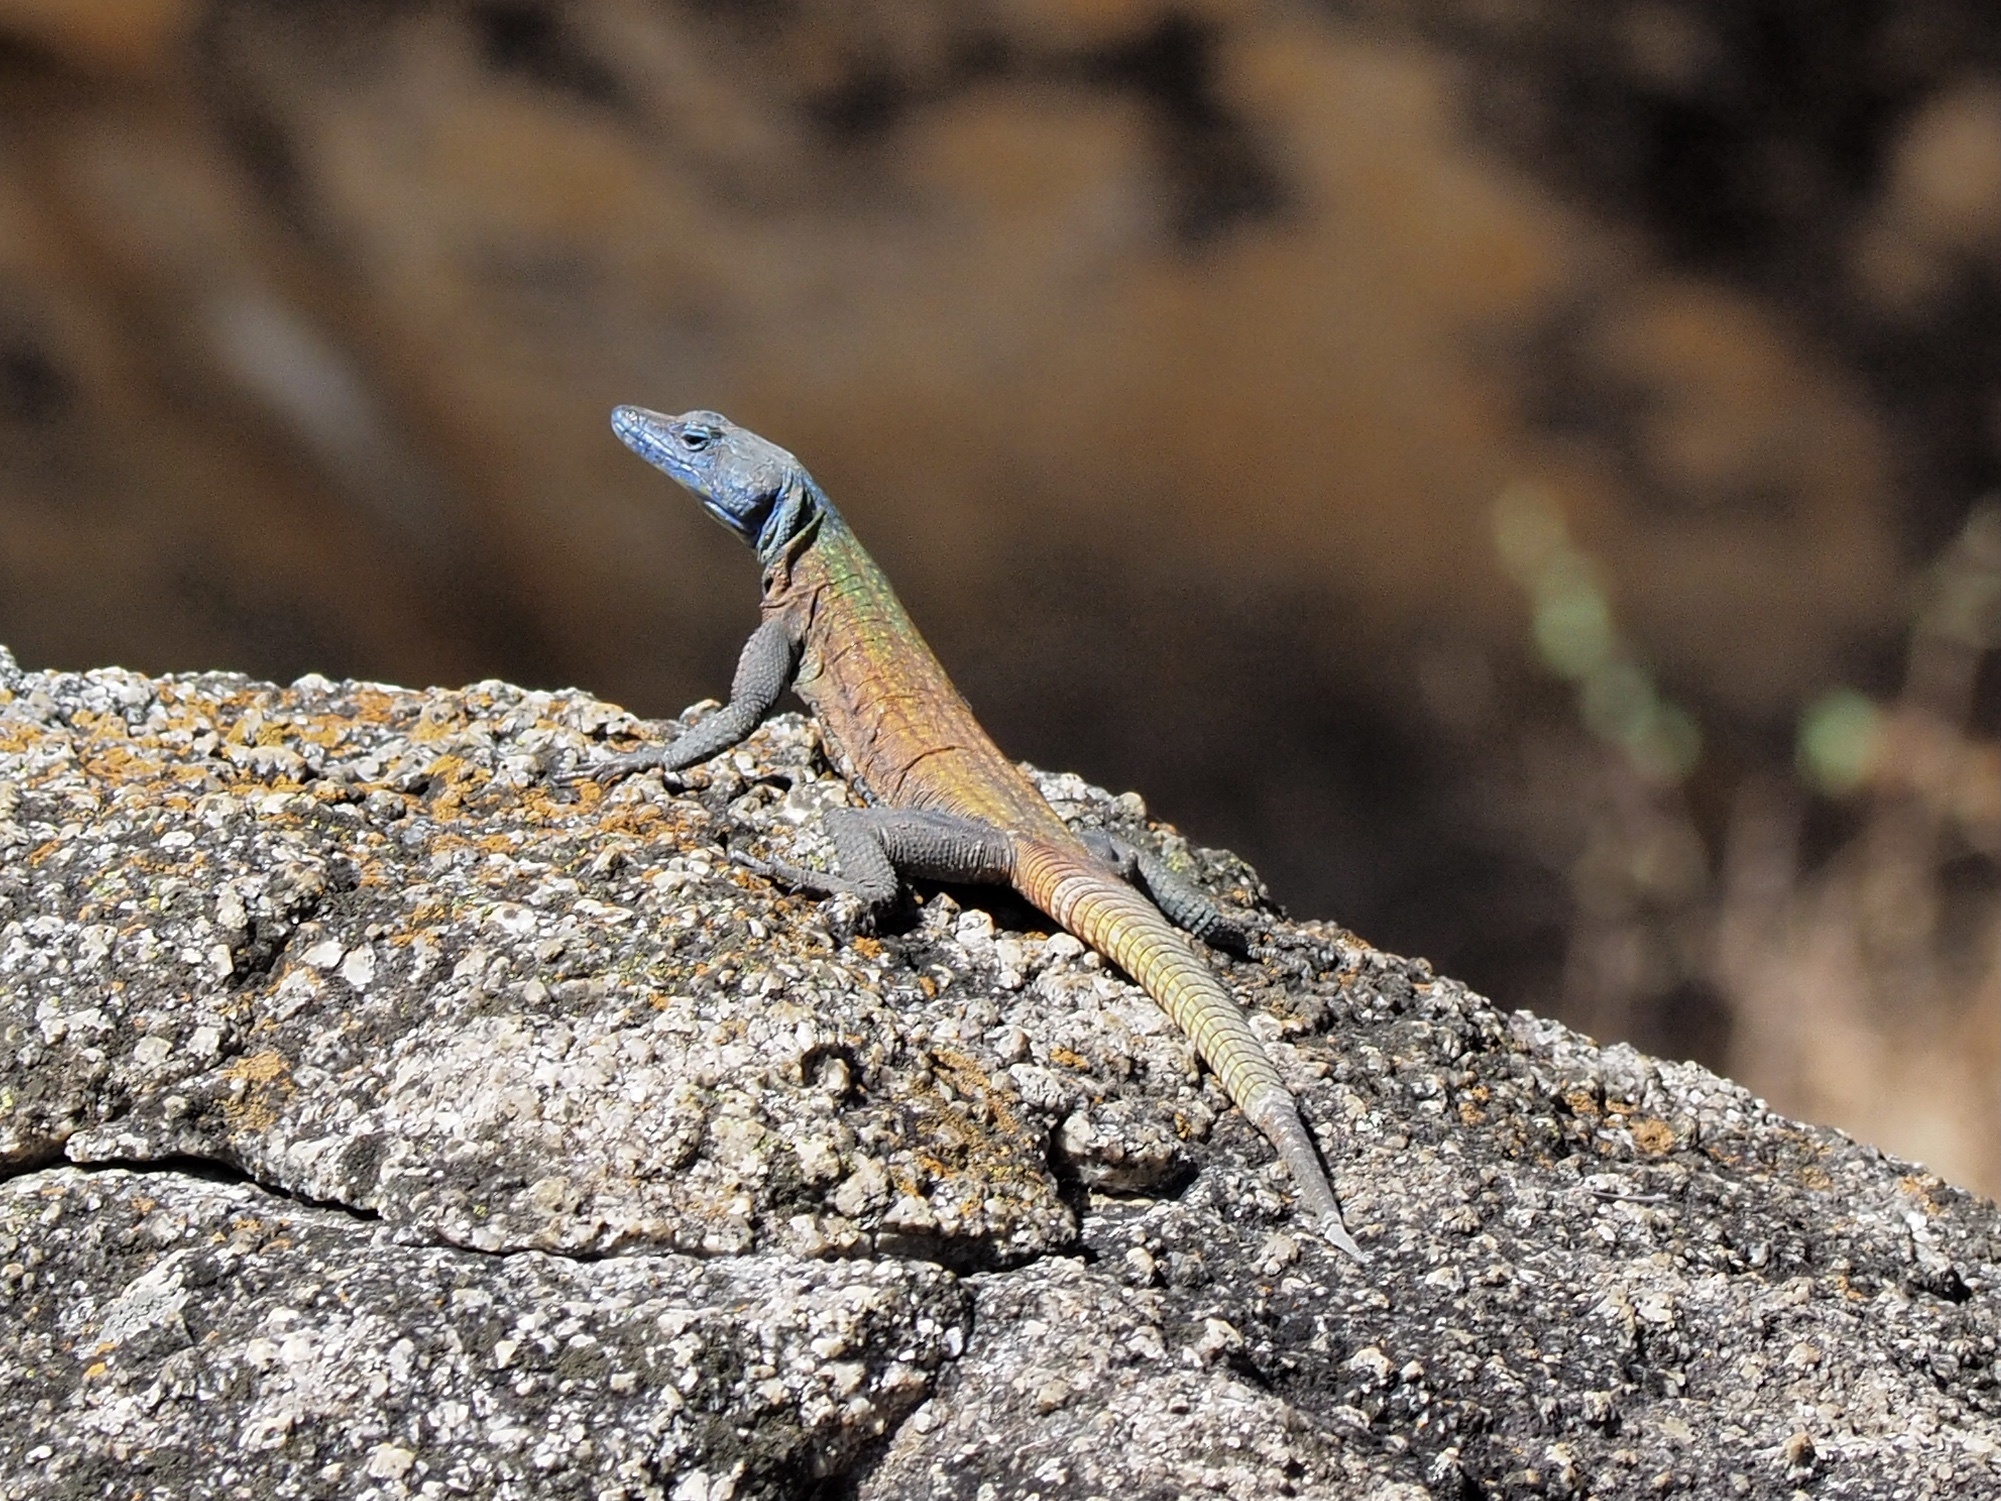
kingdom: Animalia
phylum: Chordata
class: Squamata
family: Cordylidae
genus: Platysaurus
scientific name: Platysaurus intermedius
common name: Common flat lizard
